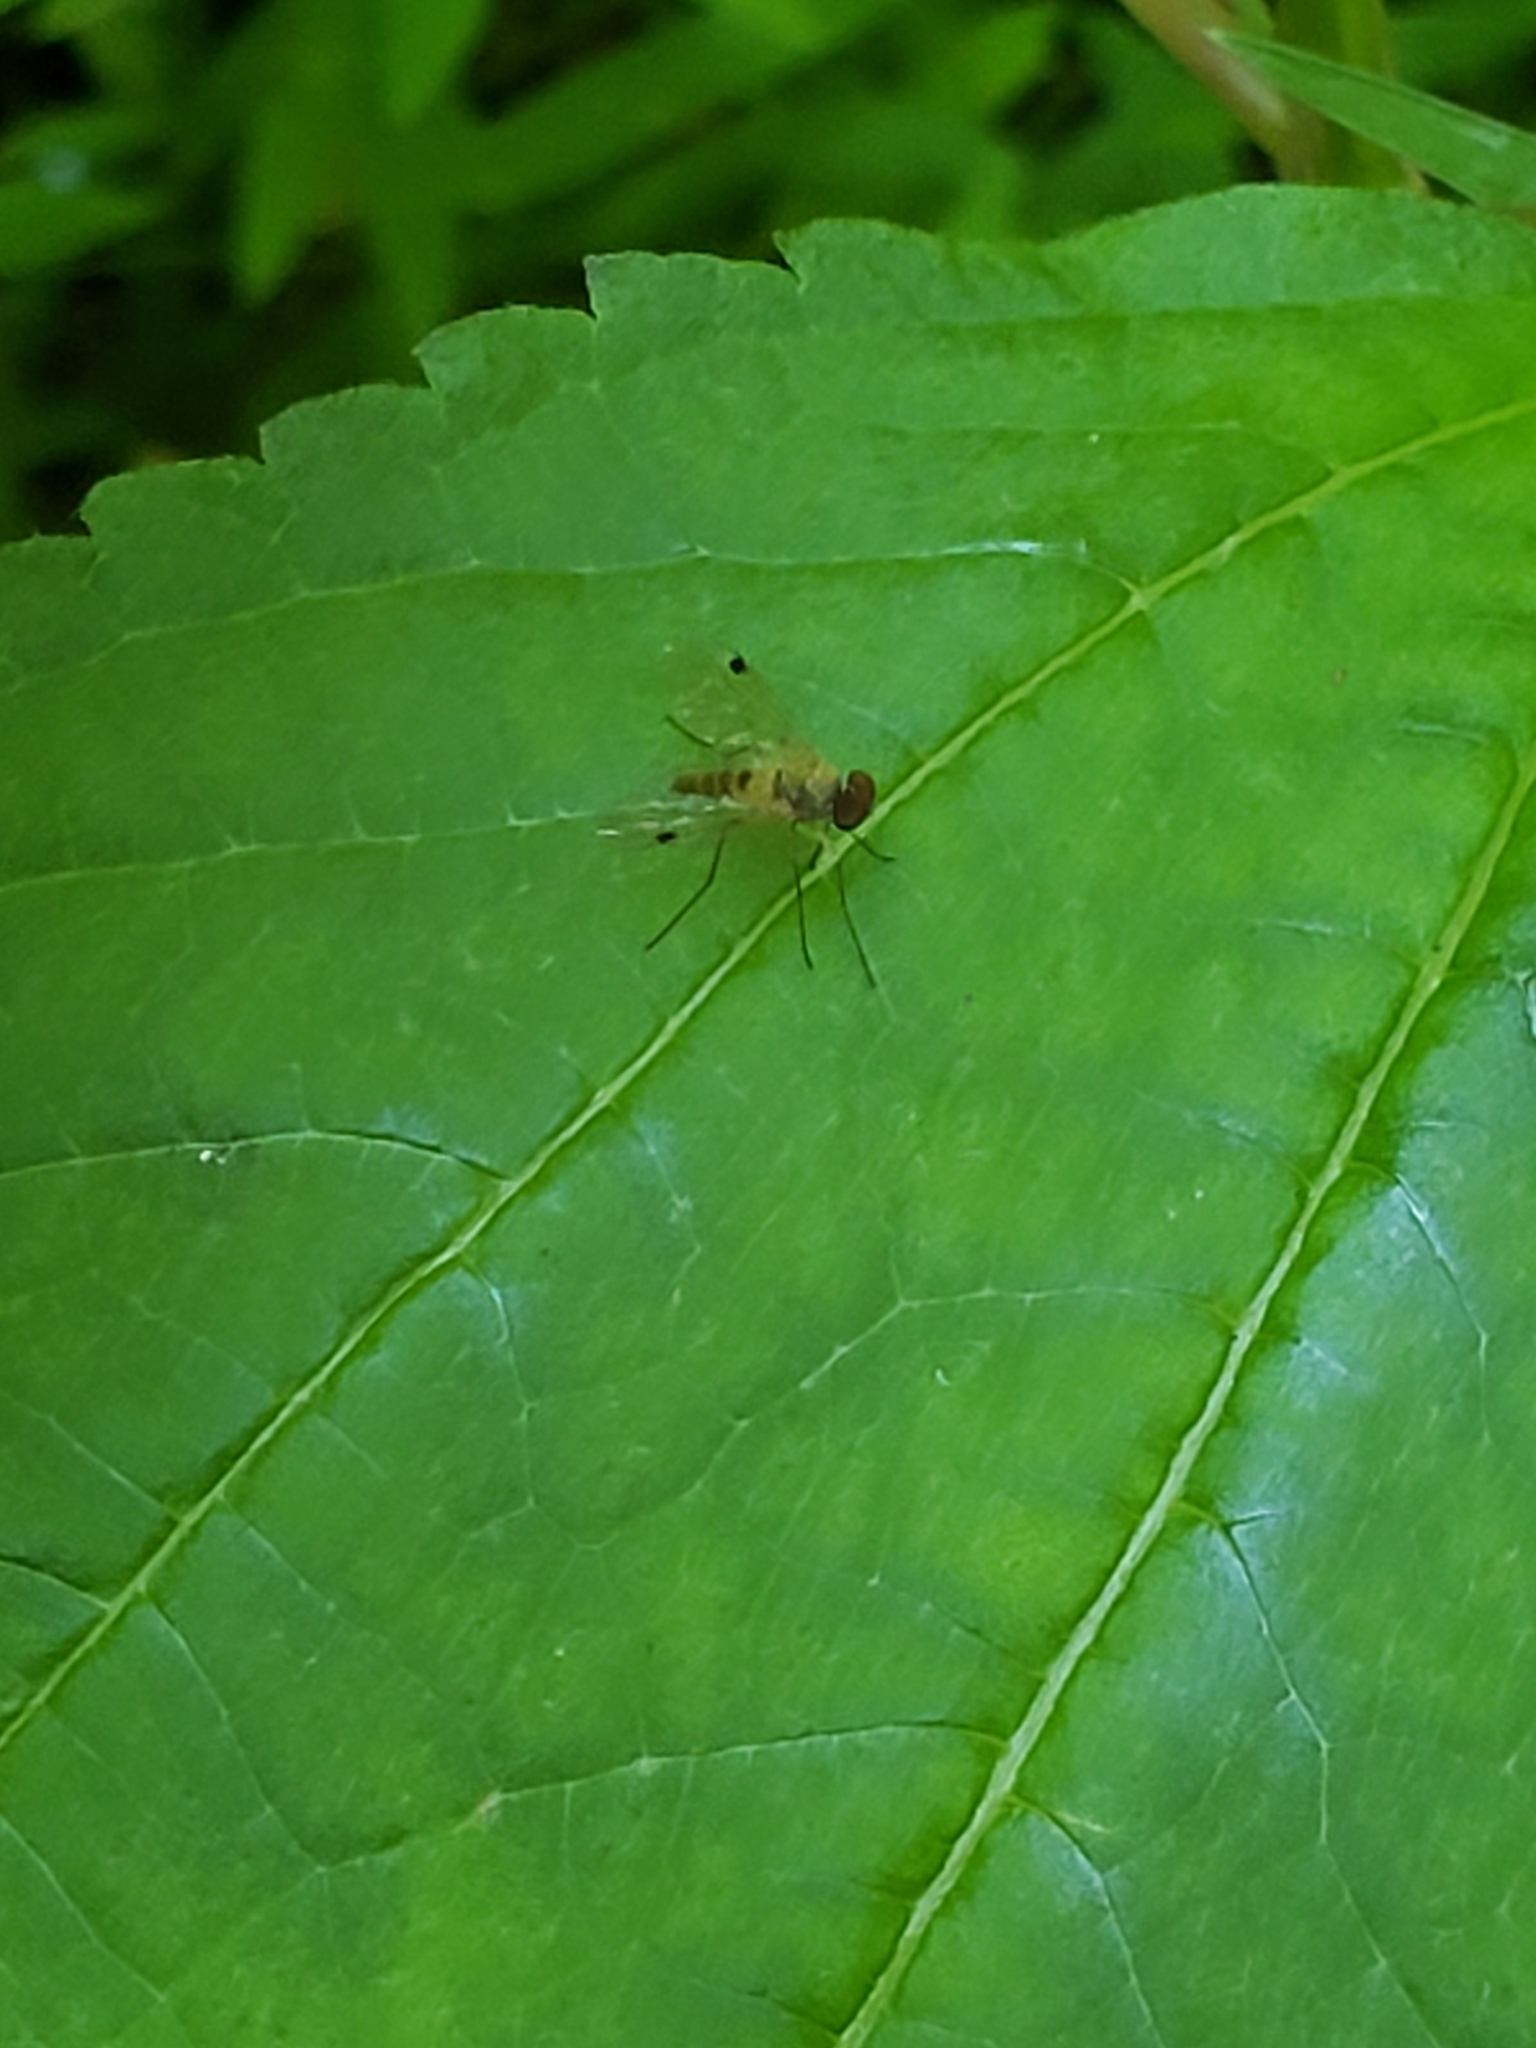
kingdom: Animalia
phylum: Arthropoda
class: Insecta
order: Diptera
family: Rhagionidae
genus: Chrysopilus
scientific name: Chrysopilus modestus
